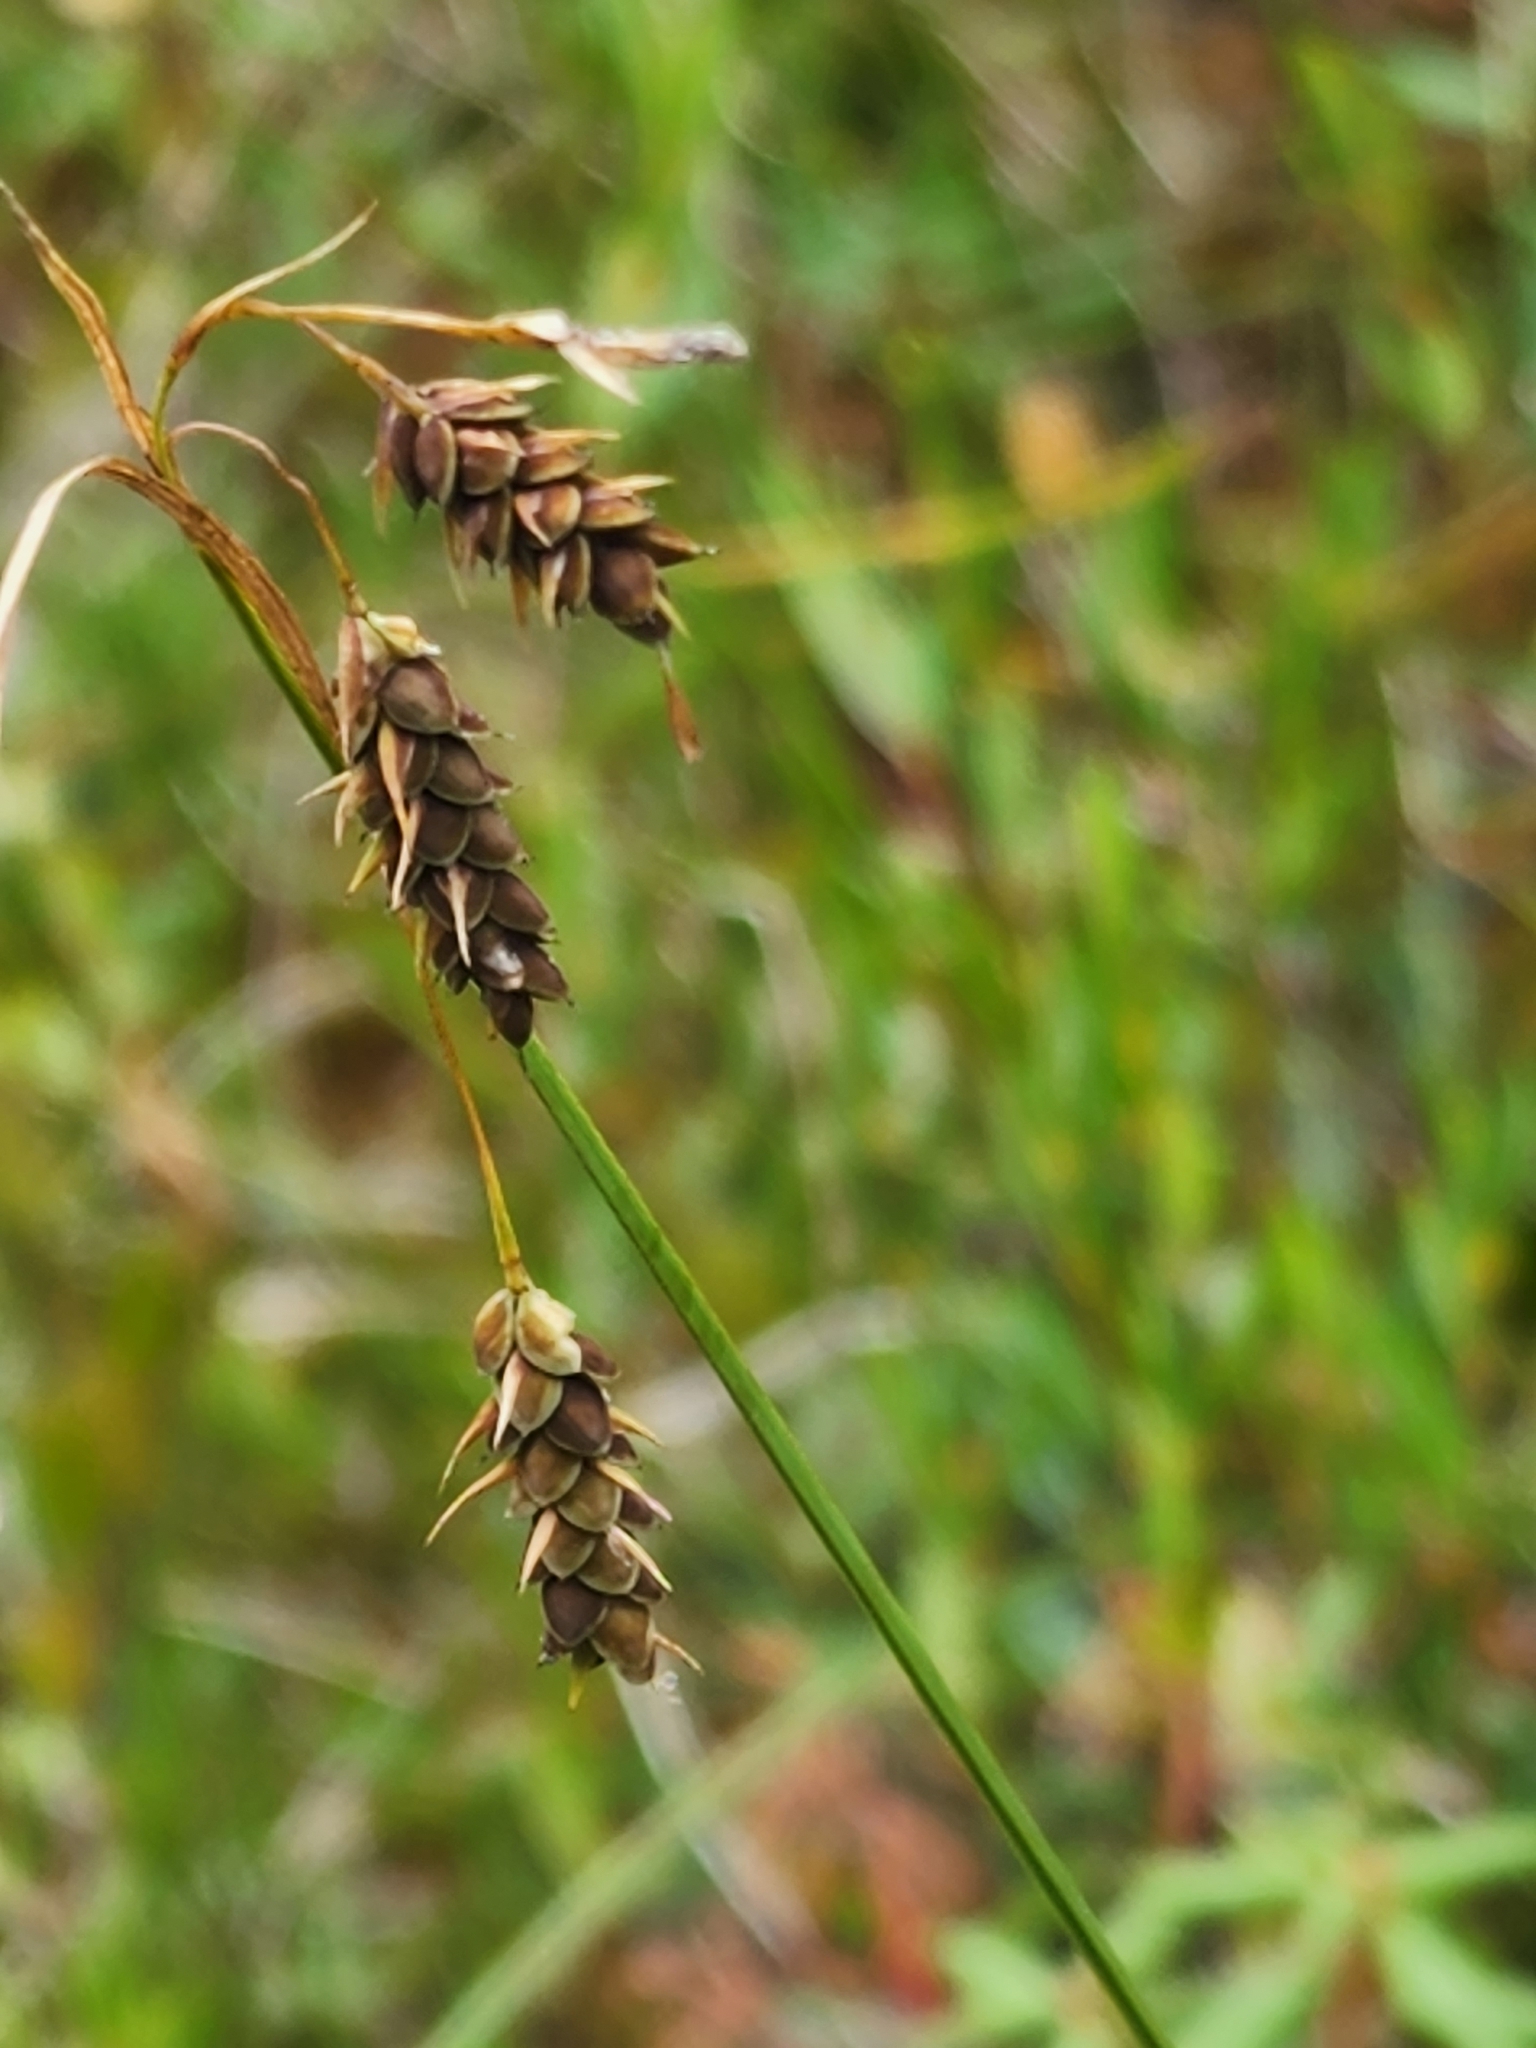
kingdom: Plantae
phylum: Tracheophyta
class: Liliopsida
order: Poales
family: Cyperaceae
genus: Carex
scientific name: Carex magellanica
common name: Bog sedge
